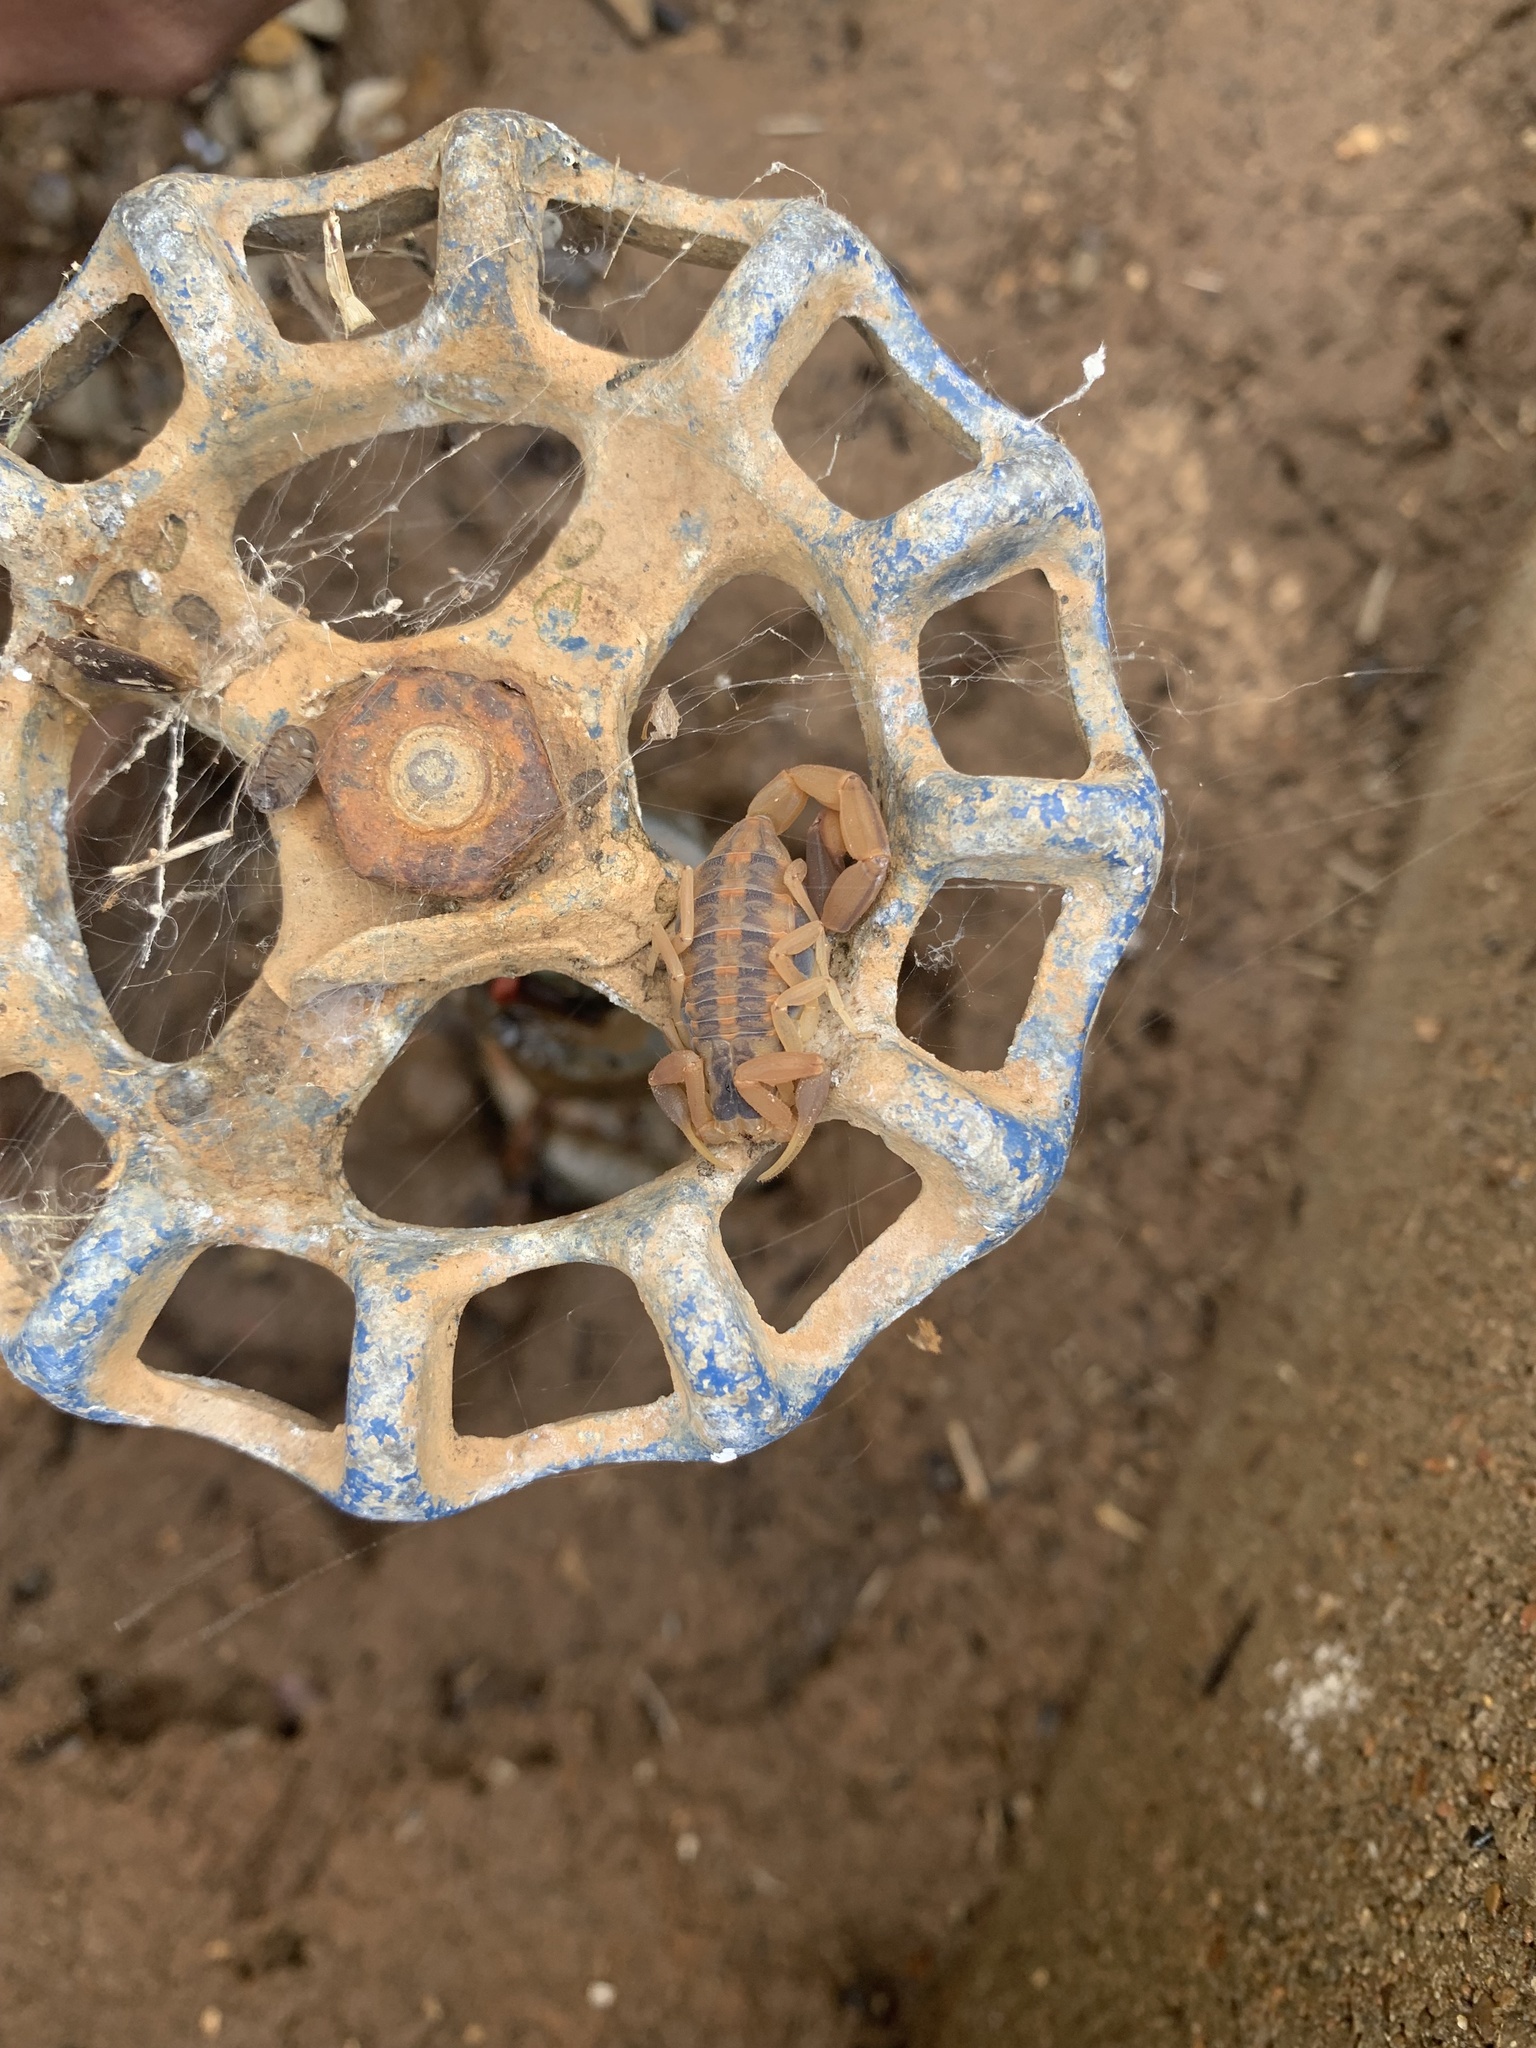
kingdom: Animalia
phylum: Arthropoda
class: Arachnida
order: Scorpiones
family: Buthidae
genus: Centruroides
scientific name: Centruroides vittatus
